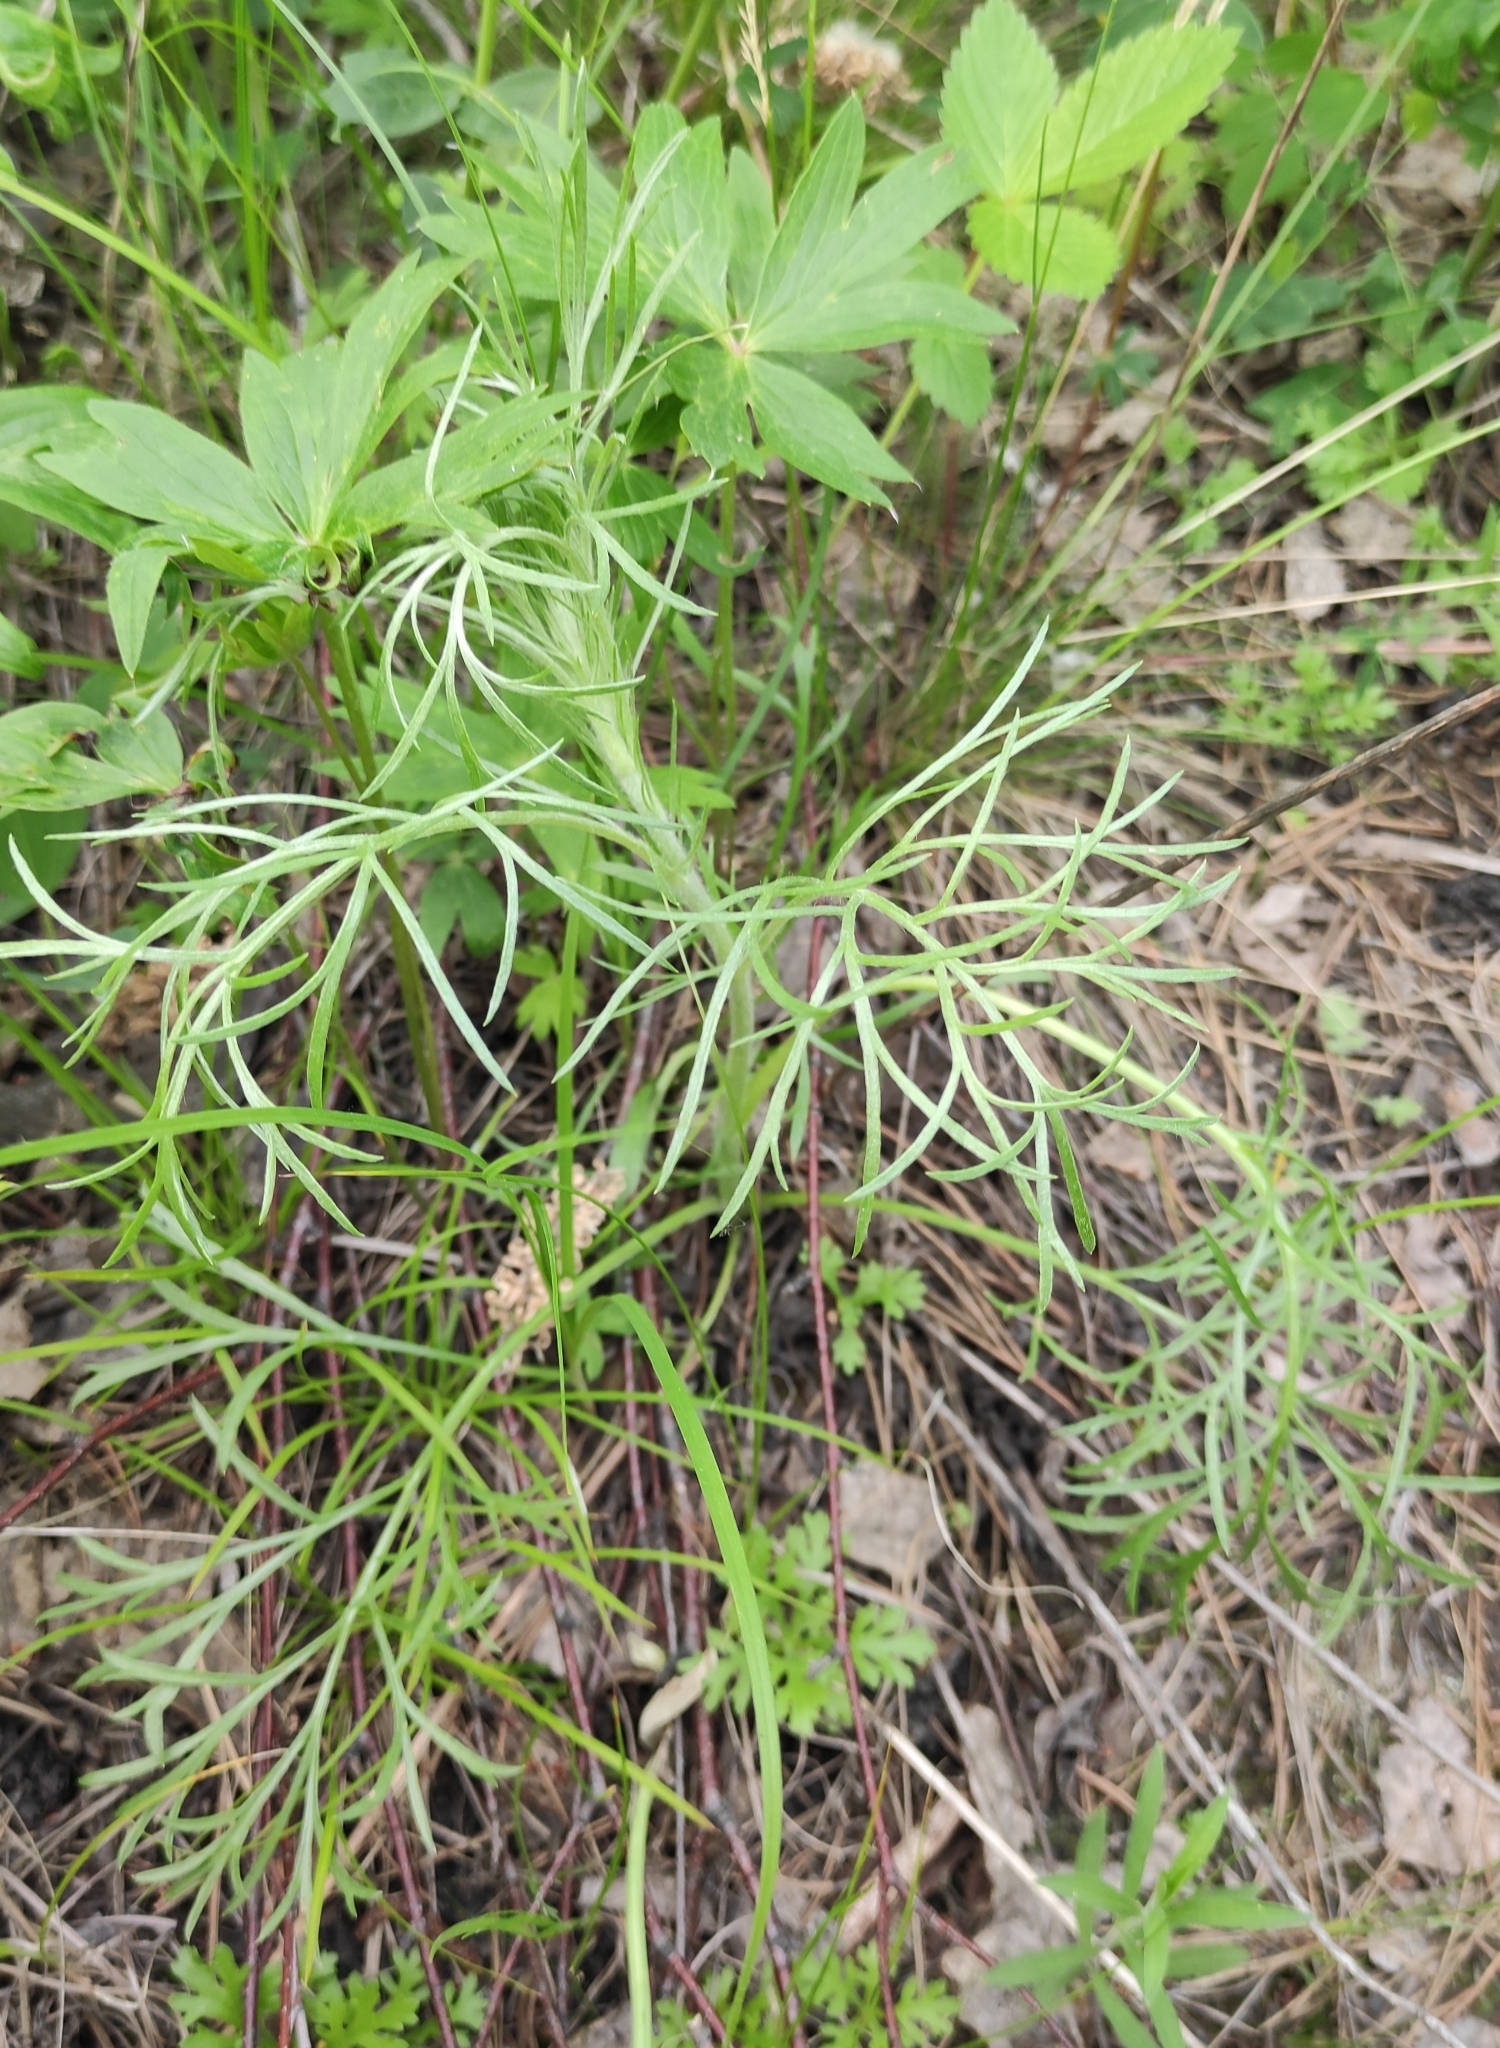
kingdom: Plantae
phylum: Tracheophyta
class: Magnoliopsida
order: Asterales
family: Asteraceae
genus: Artemisia
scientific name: Artemisia pubescens
